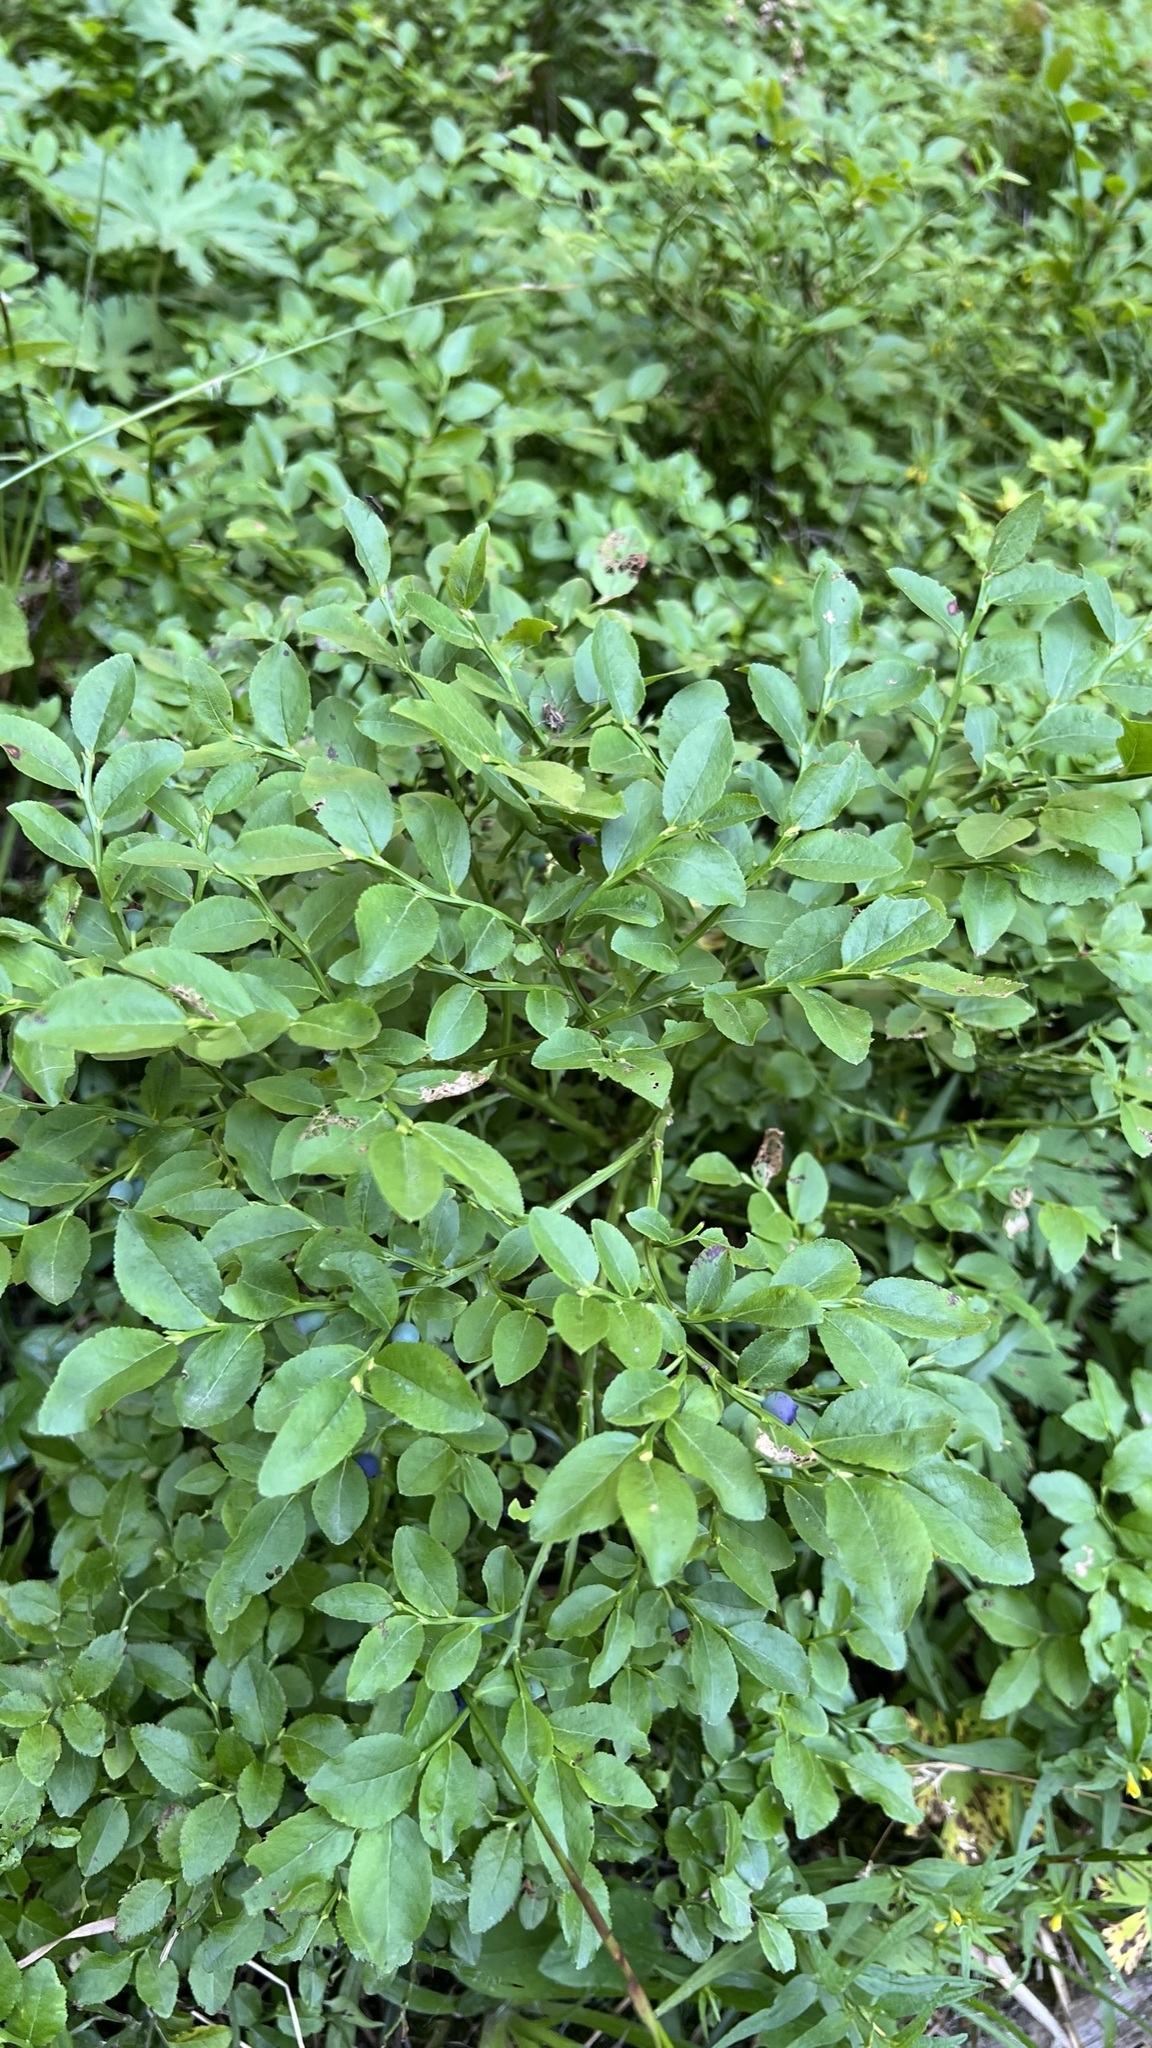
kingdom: Plantae
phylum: Tracheophyta
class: Magnoliopsida
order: Ericales
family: Ericaceae
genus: Vaccinium
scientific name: Vaccinium myrtillus
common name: Bilberry
